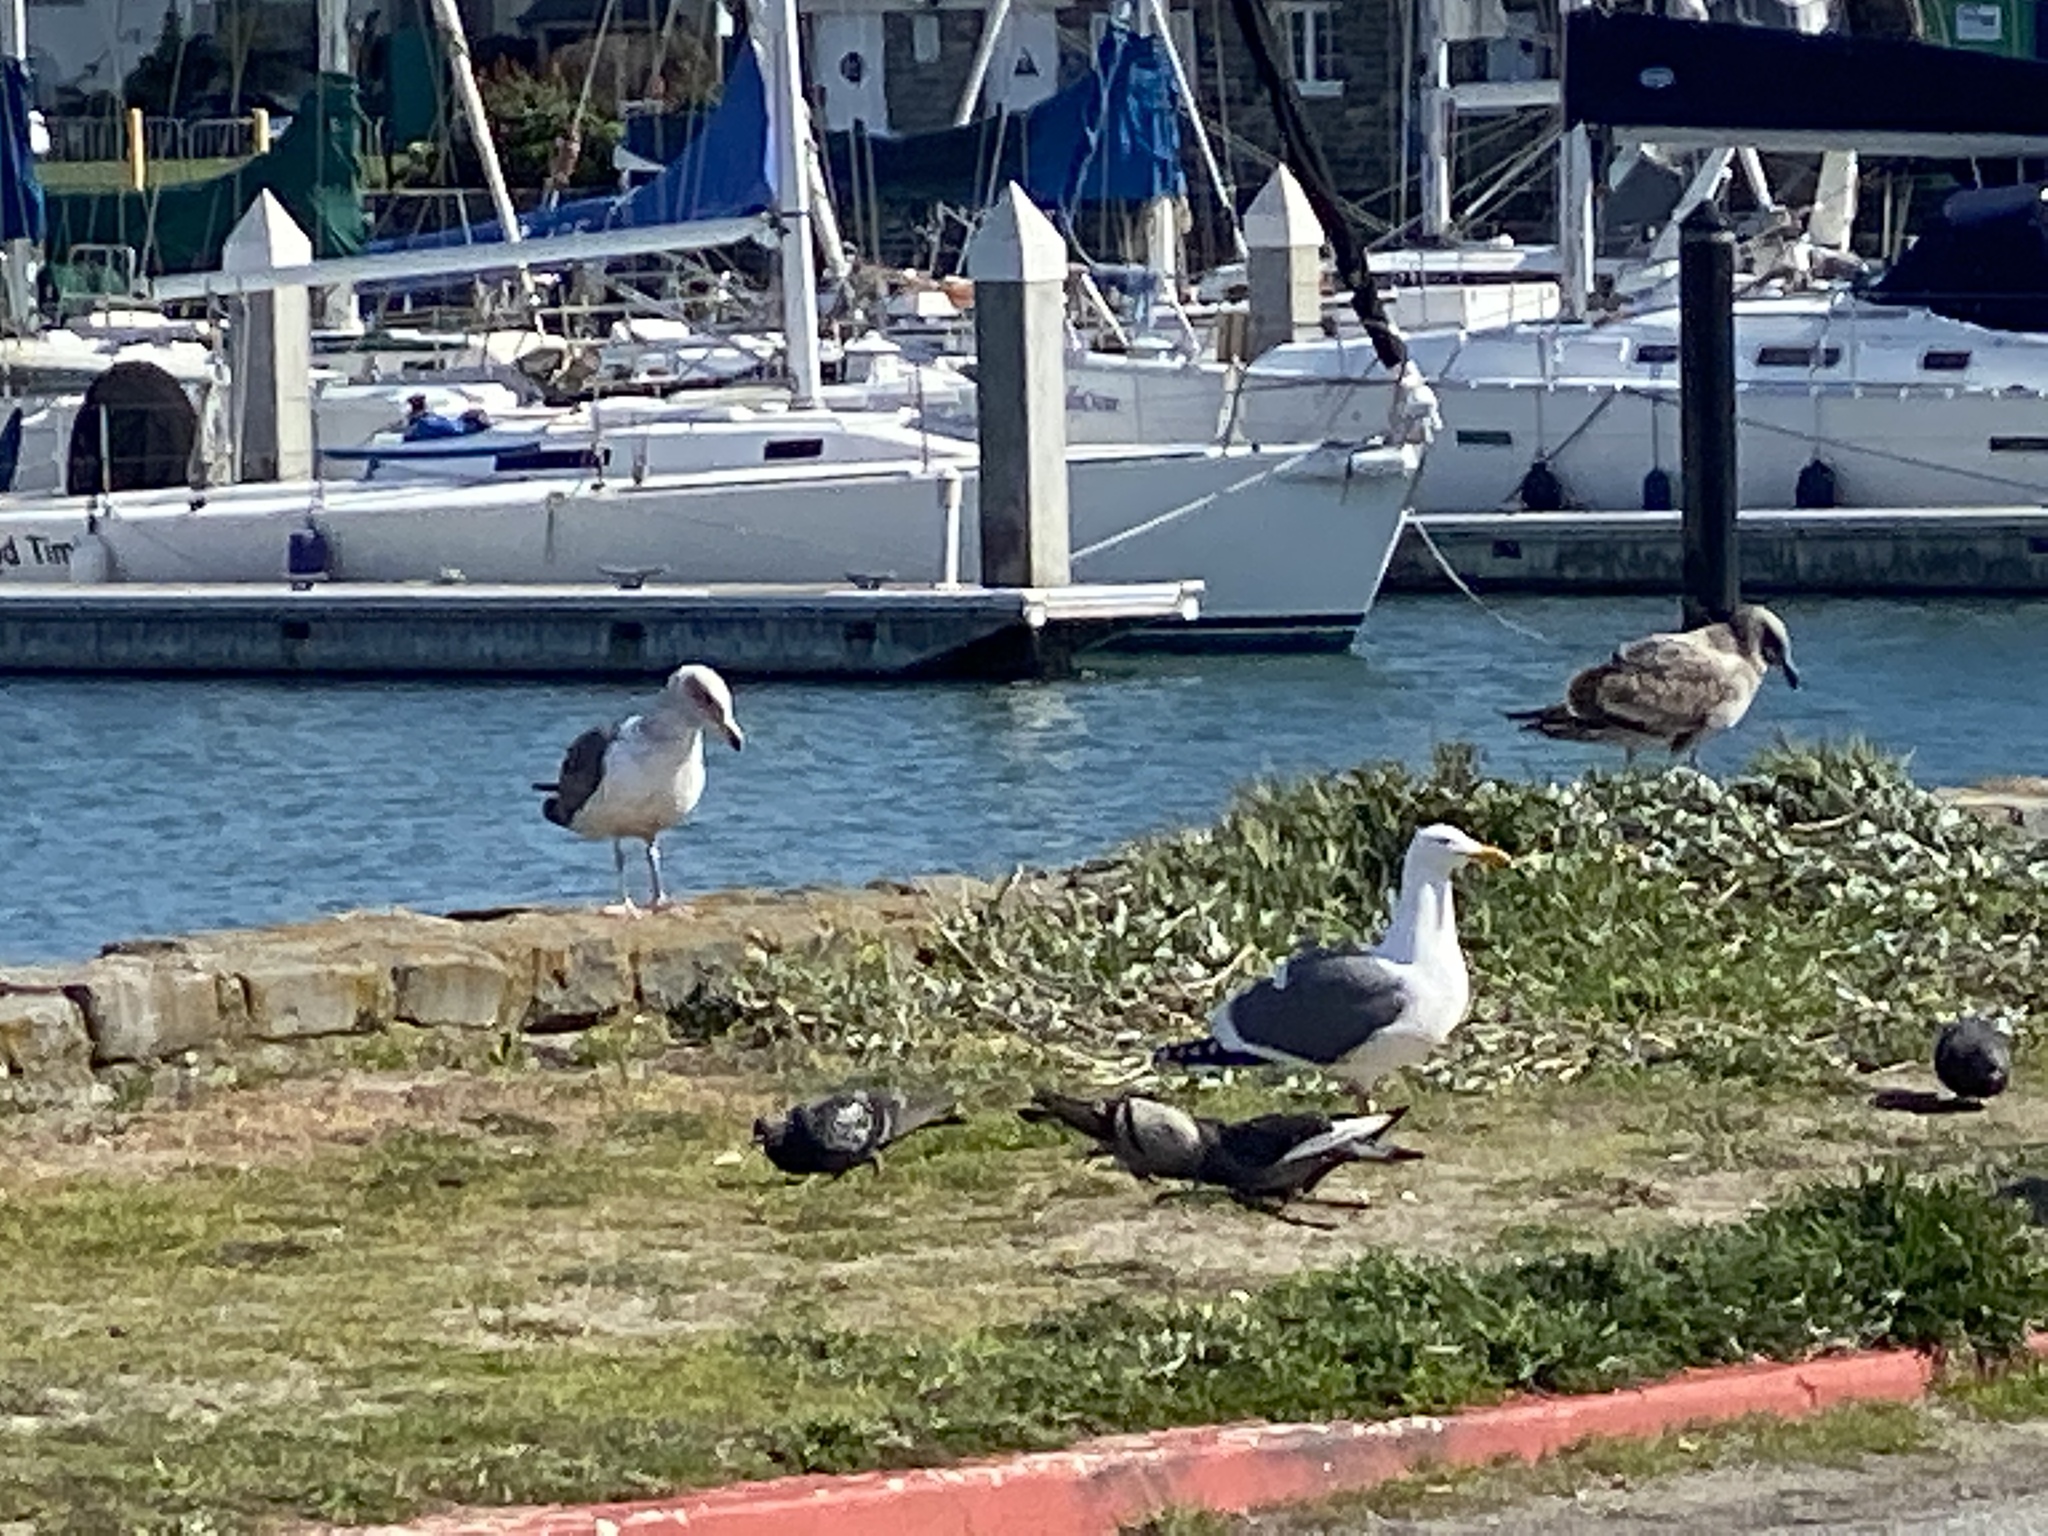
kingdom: Animalia
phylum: Chordata
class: Aves
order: Columbiformes
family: Columbidae
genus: Columba
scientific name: Columba livia
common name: Rock pigeon
